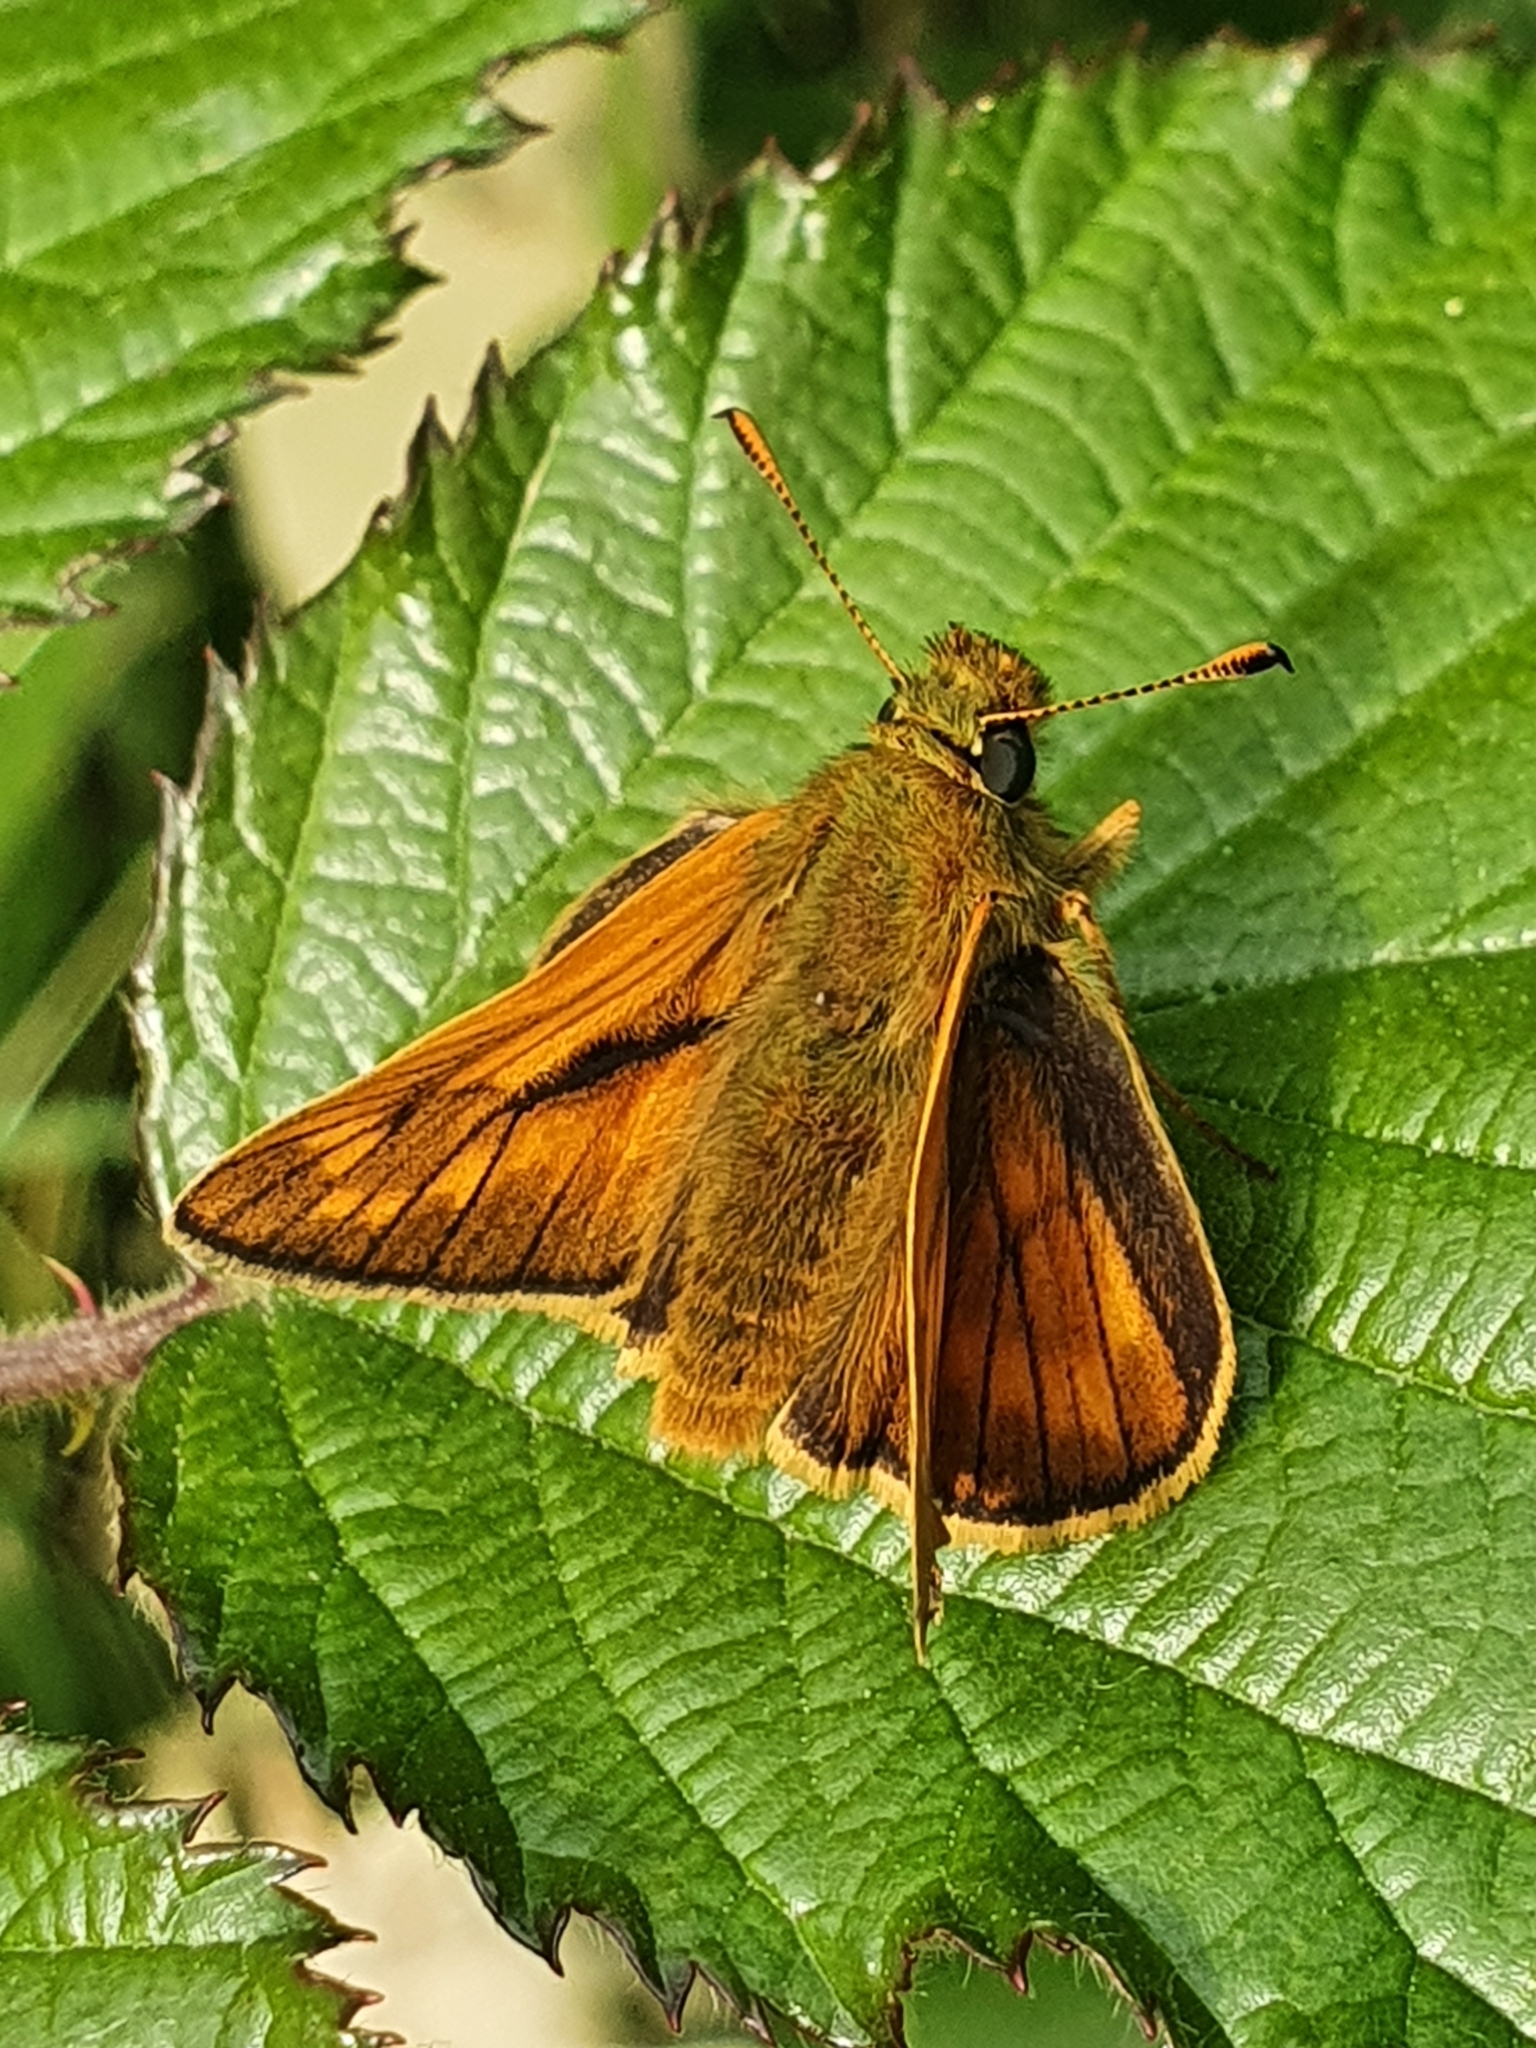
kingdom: Animalia
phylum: Arthropoda
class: Insecta
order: Lepidoptera
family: Hesperiidae
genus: Ochlodes
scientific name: Ochlodes venata
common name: Large skipper
